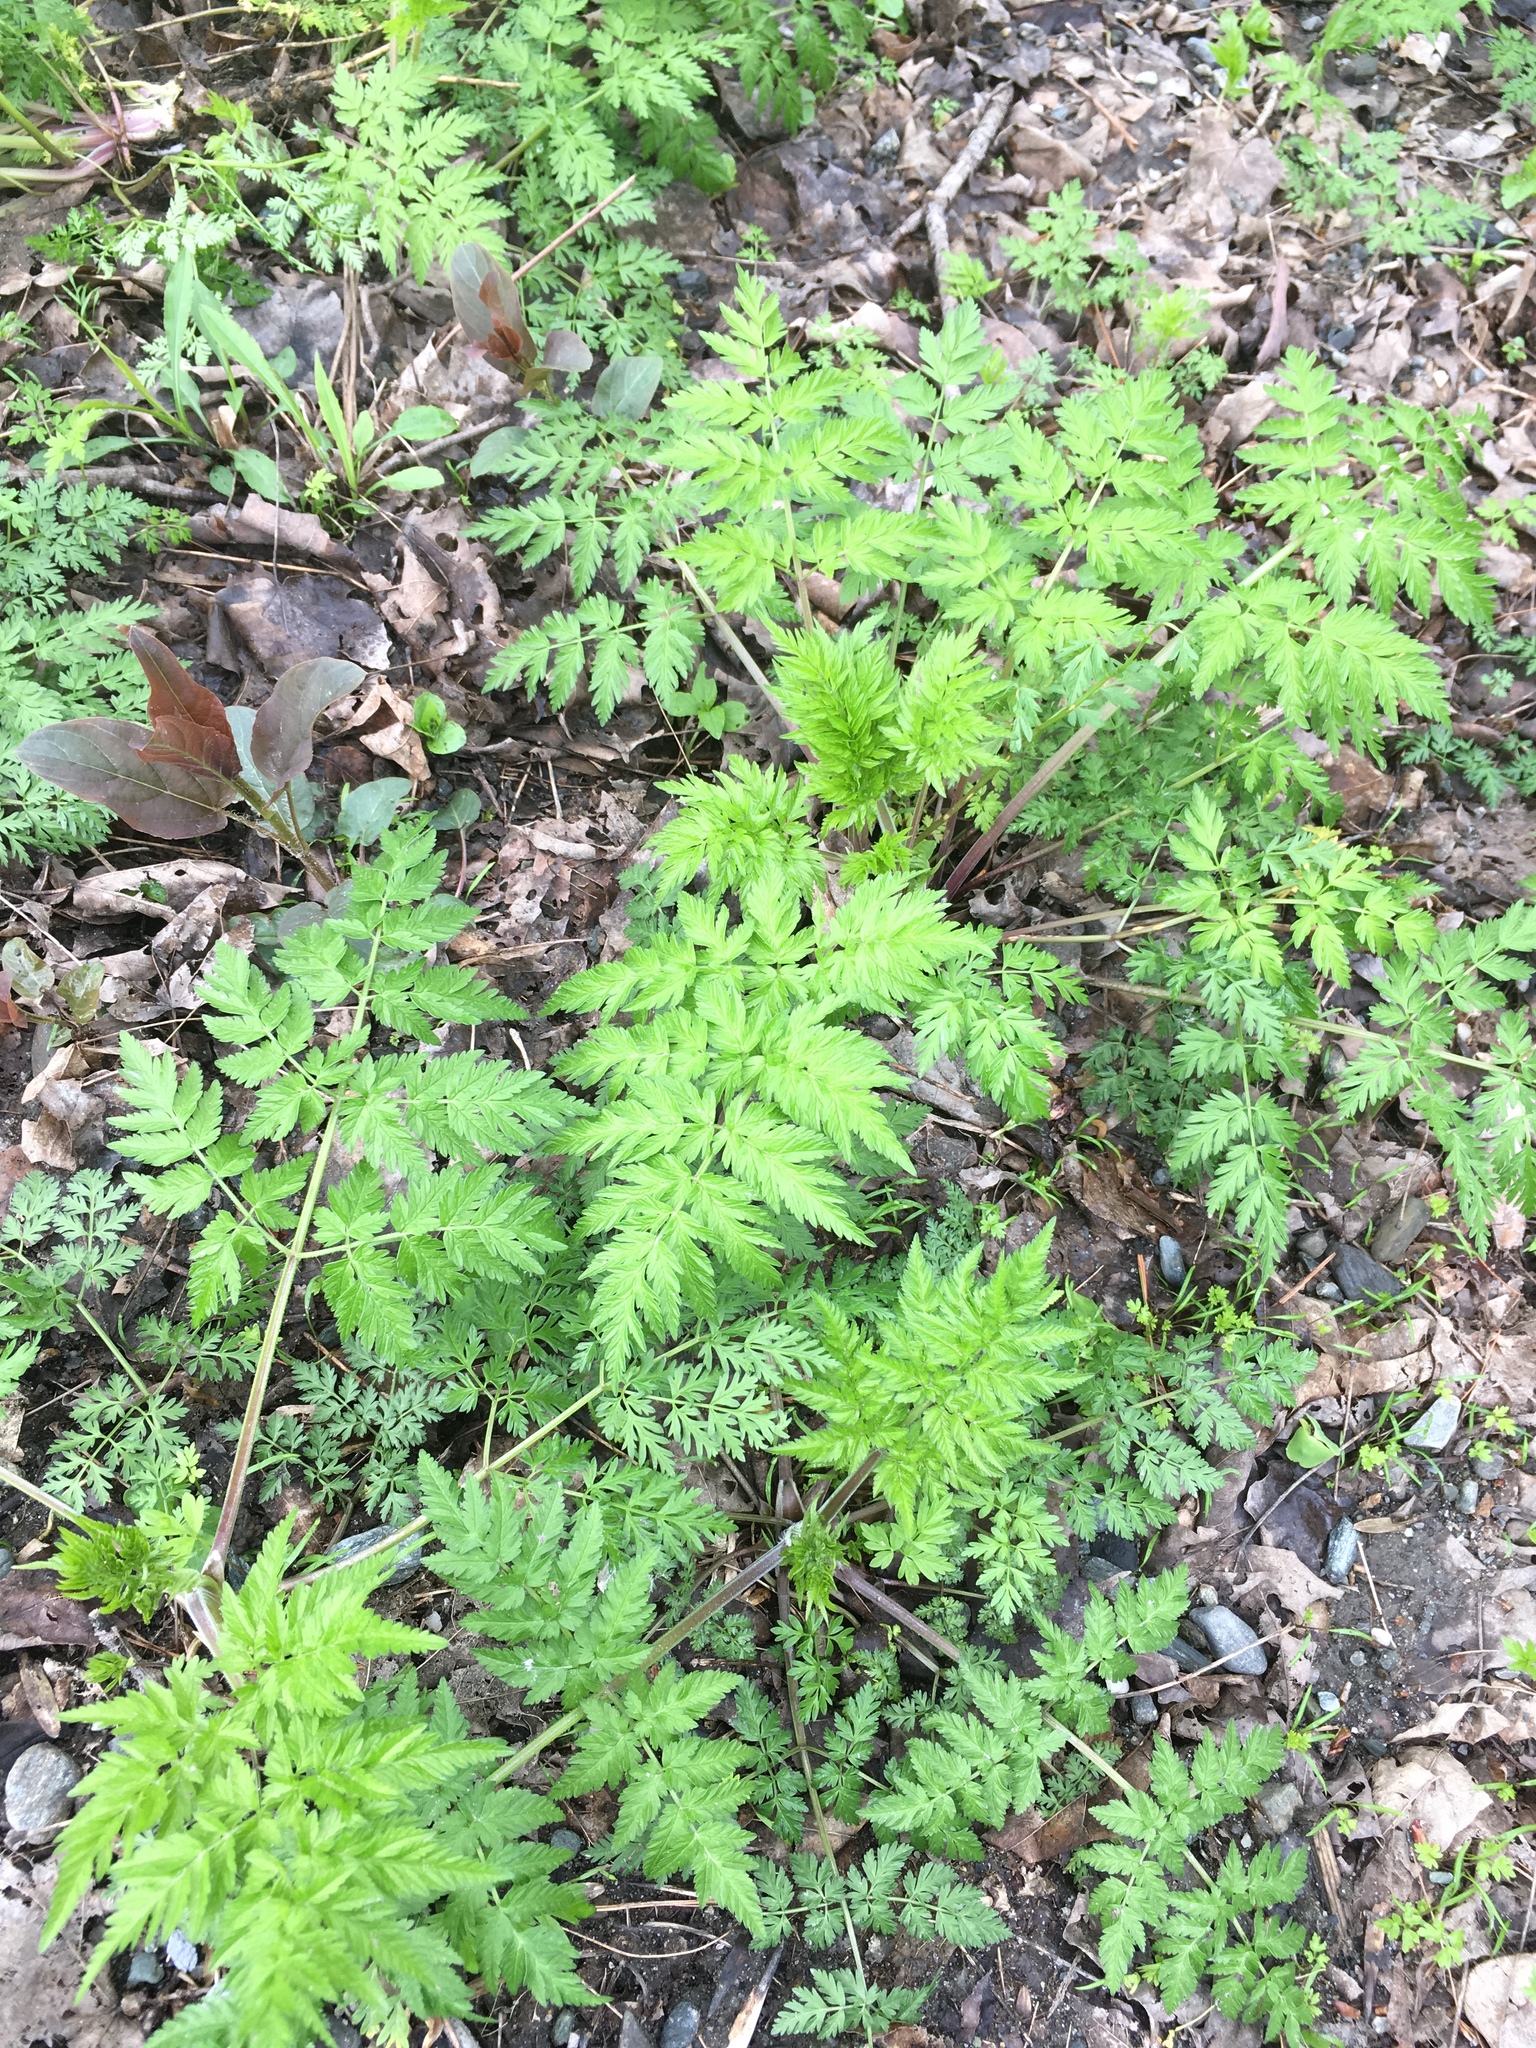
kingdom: Plantae
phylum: Tracheophyta
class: Magnoliopsida
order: Apiales
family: Apiaceae
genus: Anthriscus
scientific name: Anthriscus sylvestris
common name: Cow parsley
